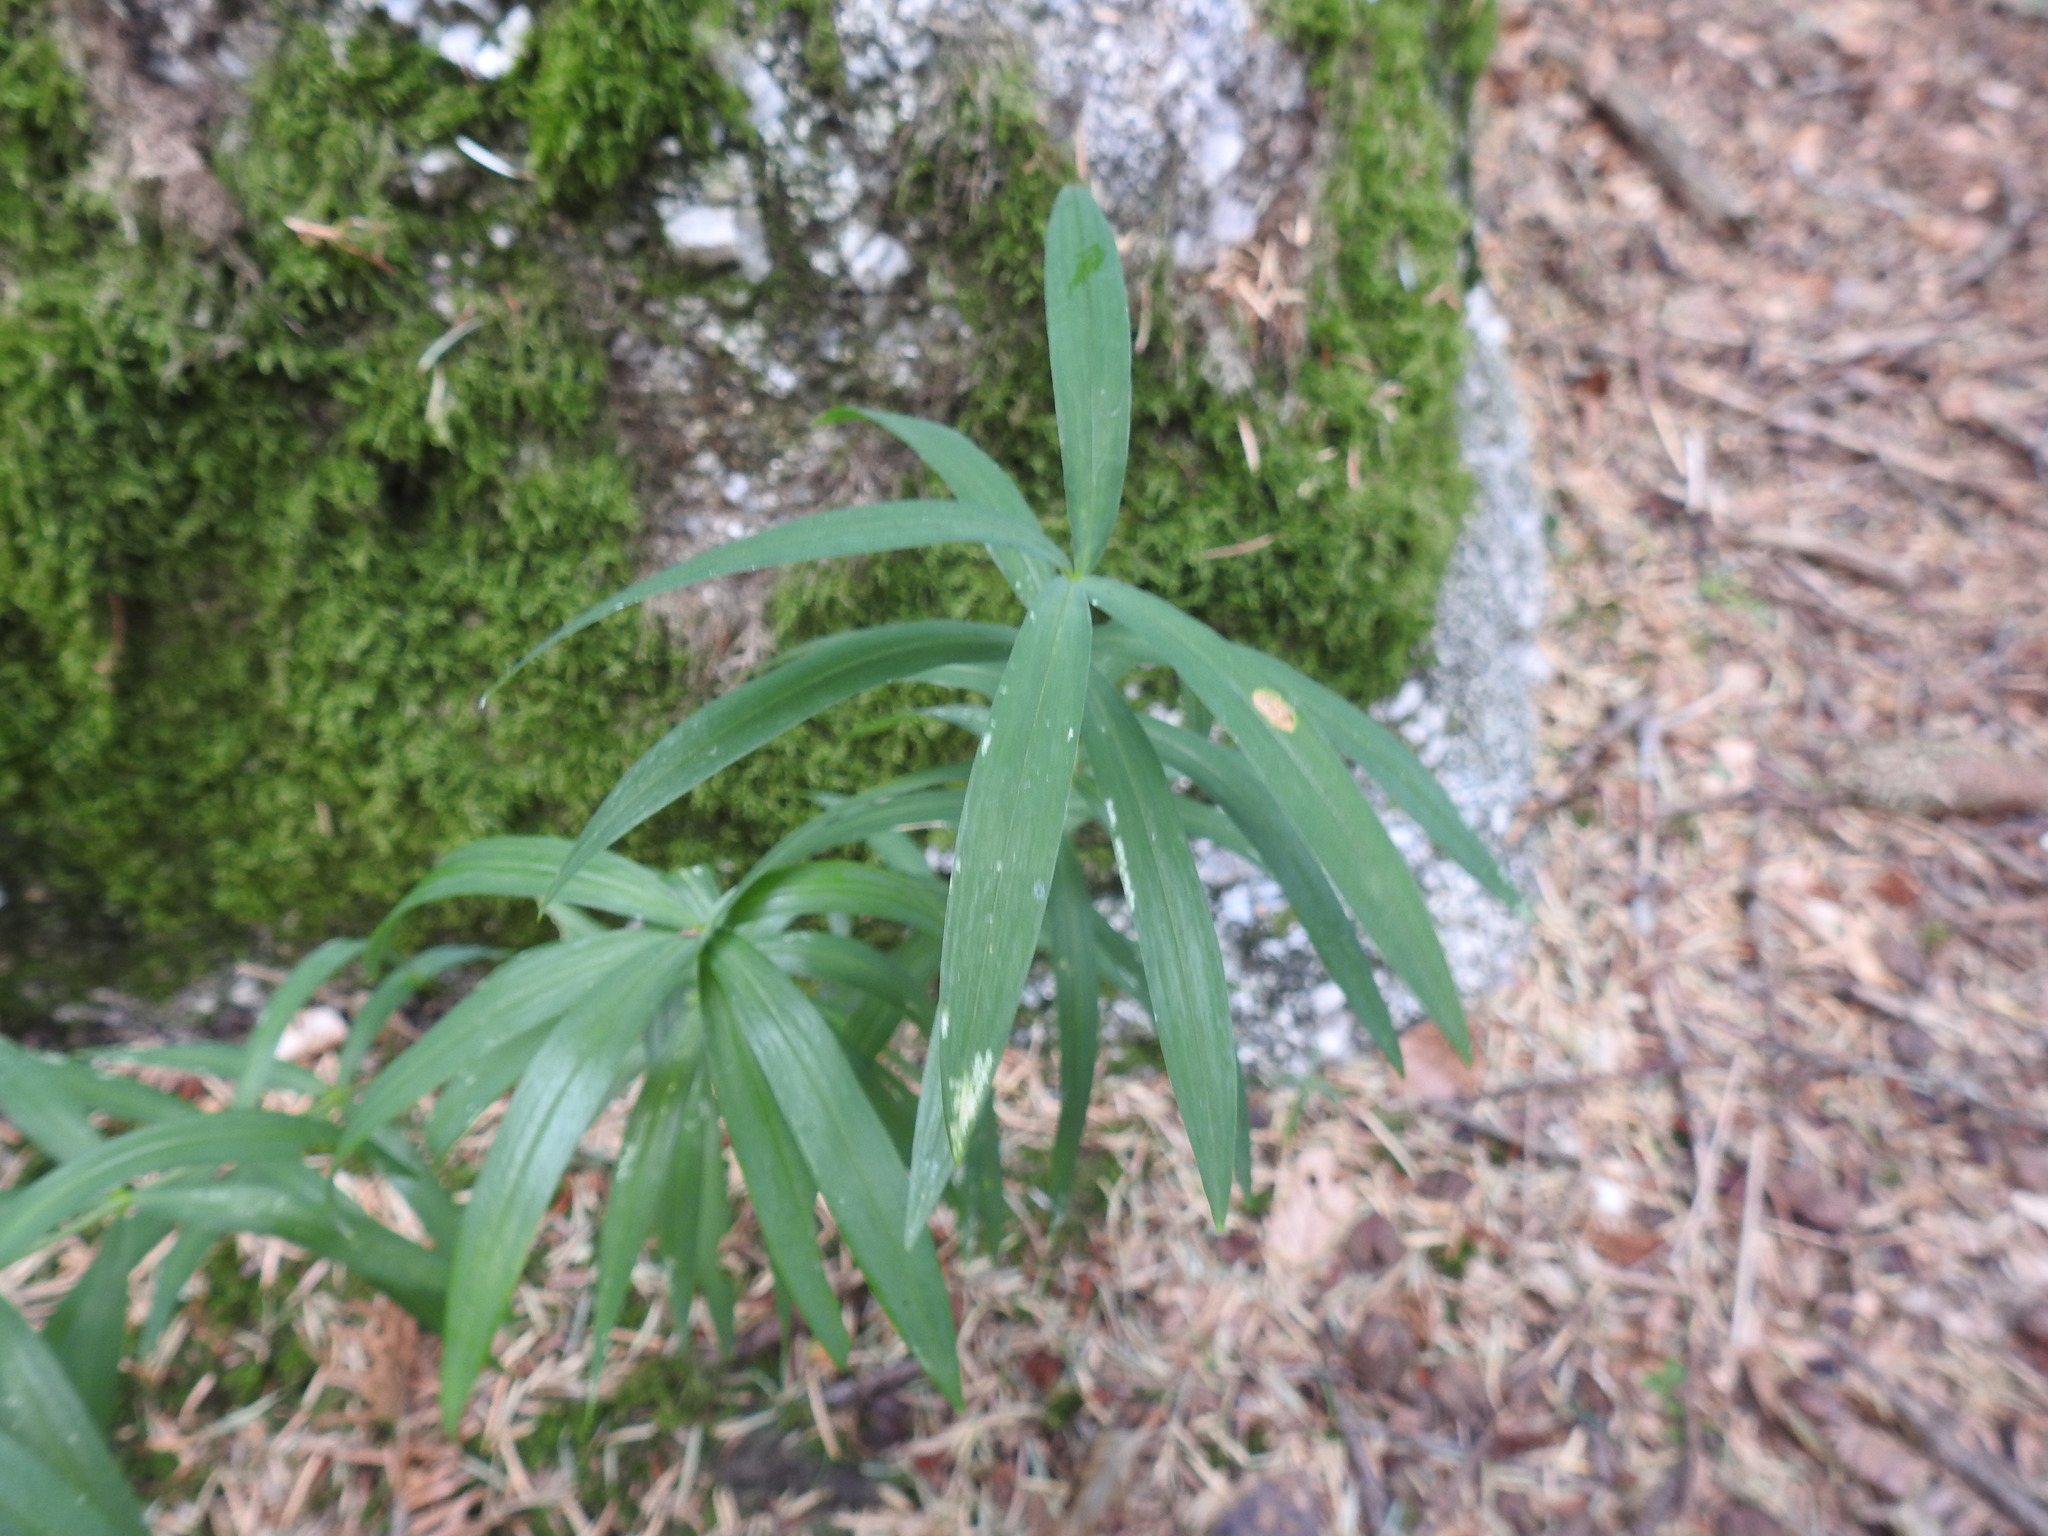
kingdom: Plantae
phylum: Tracheophyta
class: Liliopsida
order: Asparagales
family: Asparagaceae
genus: Polygonatum
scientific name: Polygonatum verticillatum
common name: Whorled solomon's-seal
